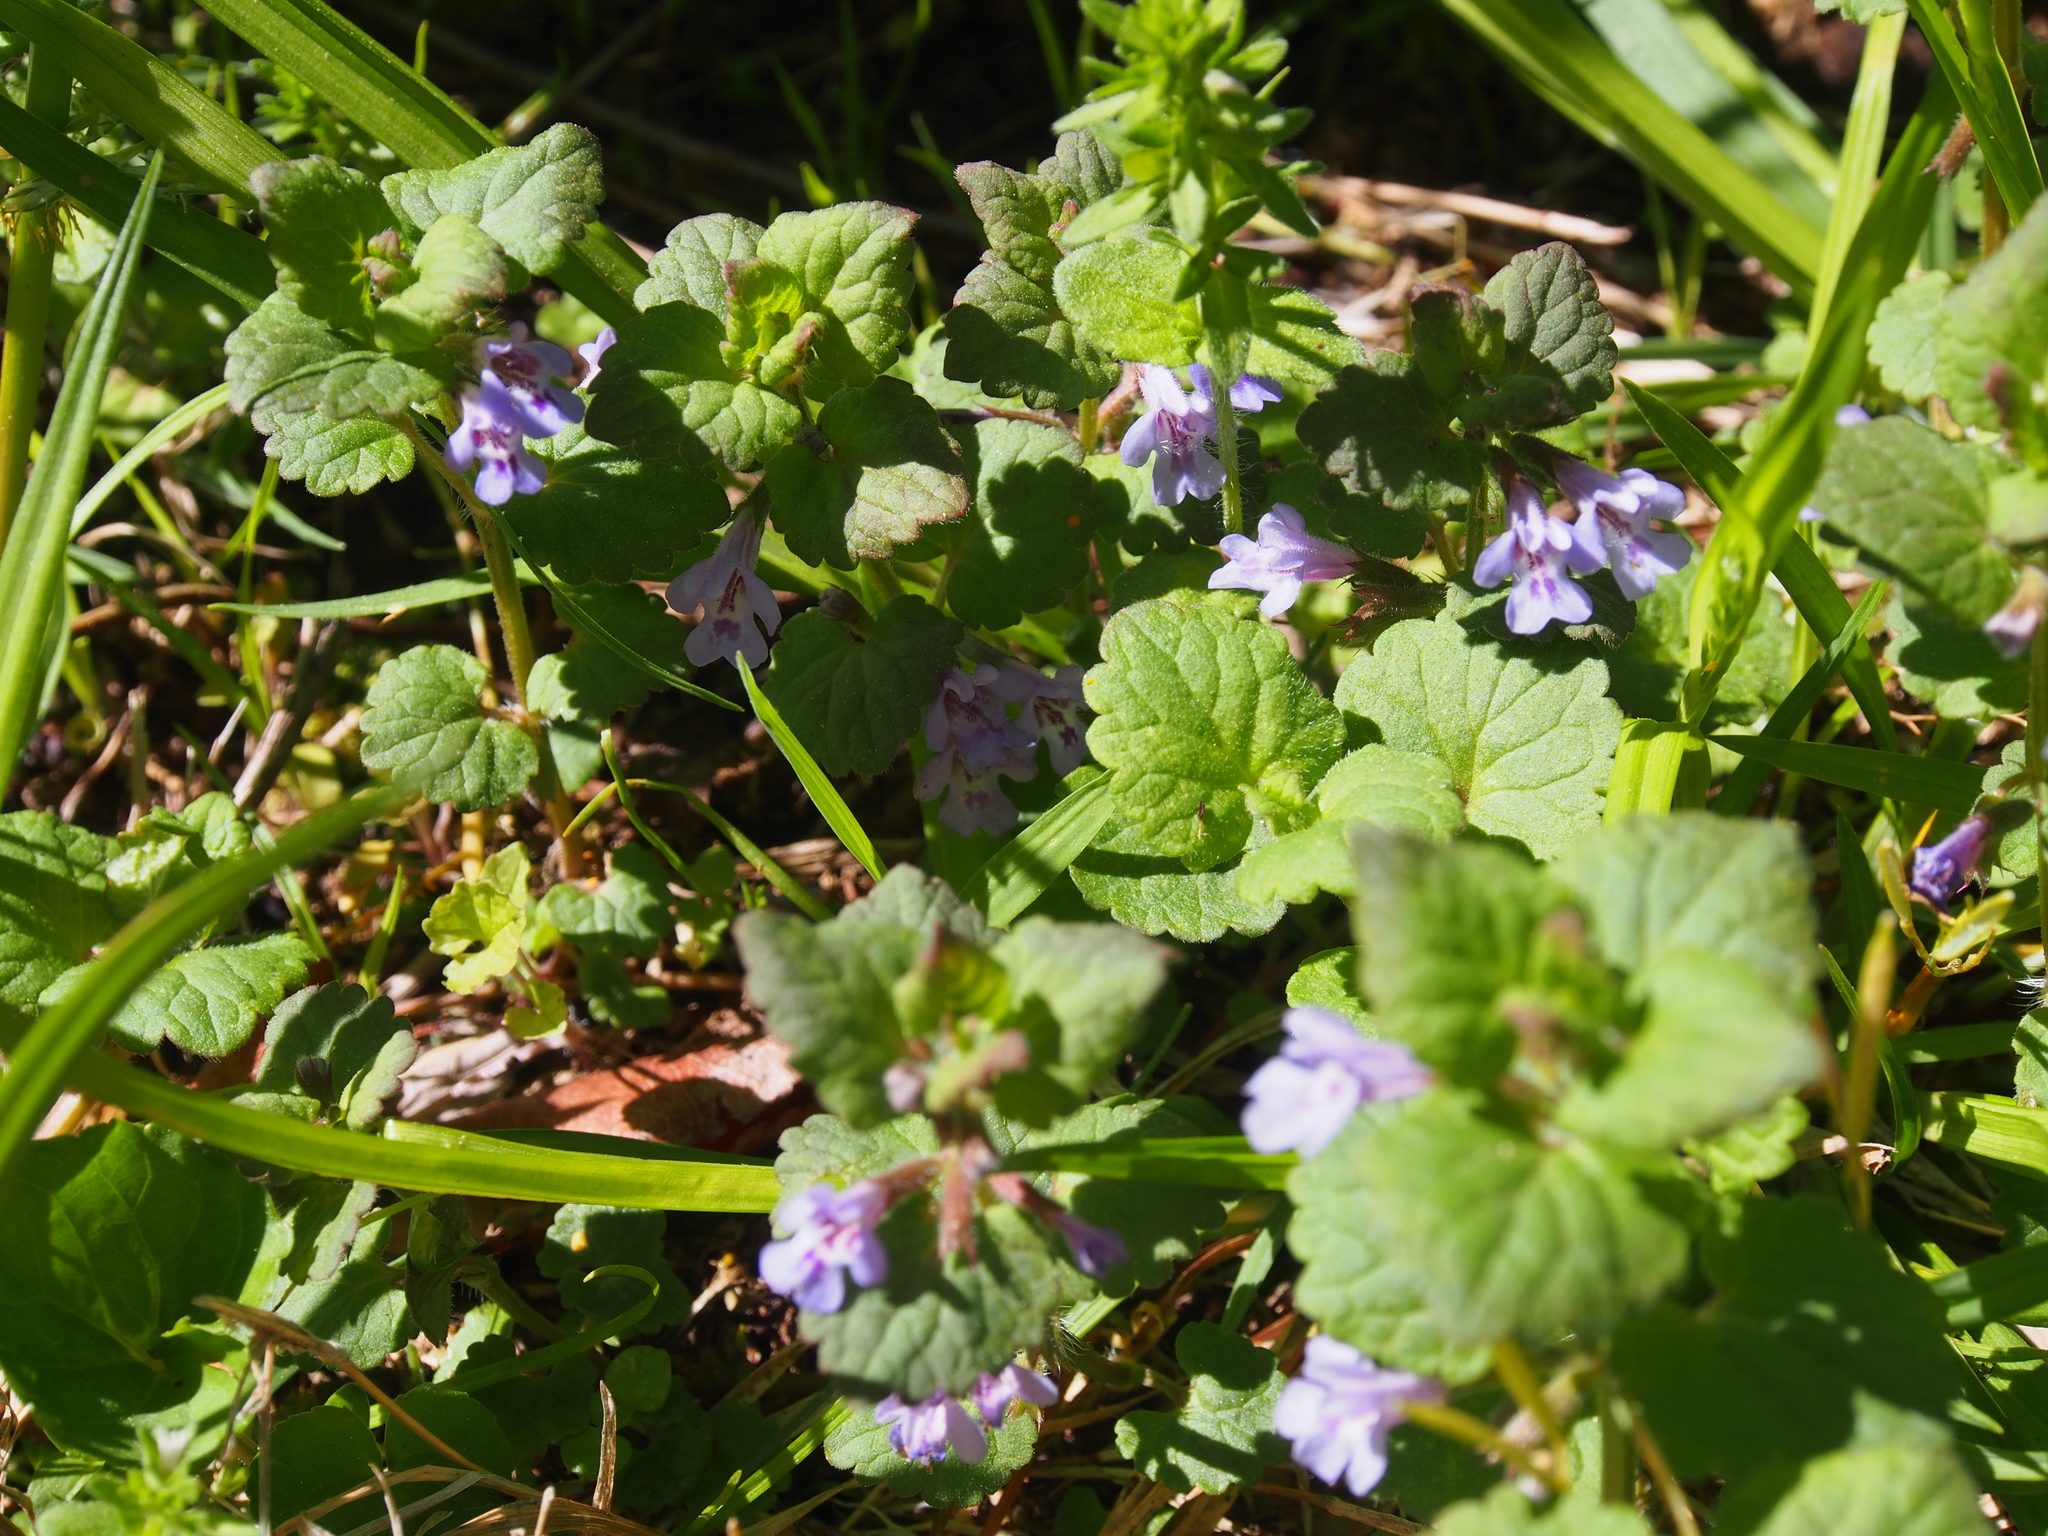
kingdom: Plantae
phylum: Tracheophyta
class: Magnoliopsida
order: Lamiales
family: Lamiaceae
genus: Glechoma
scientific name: Glechoma hederacea
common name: Ground ivy
